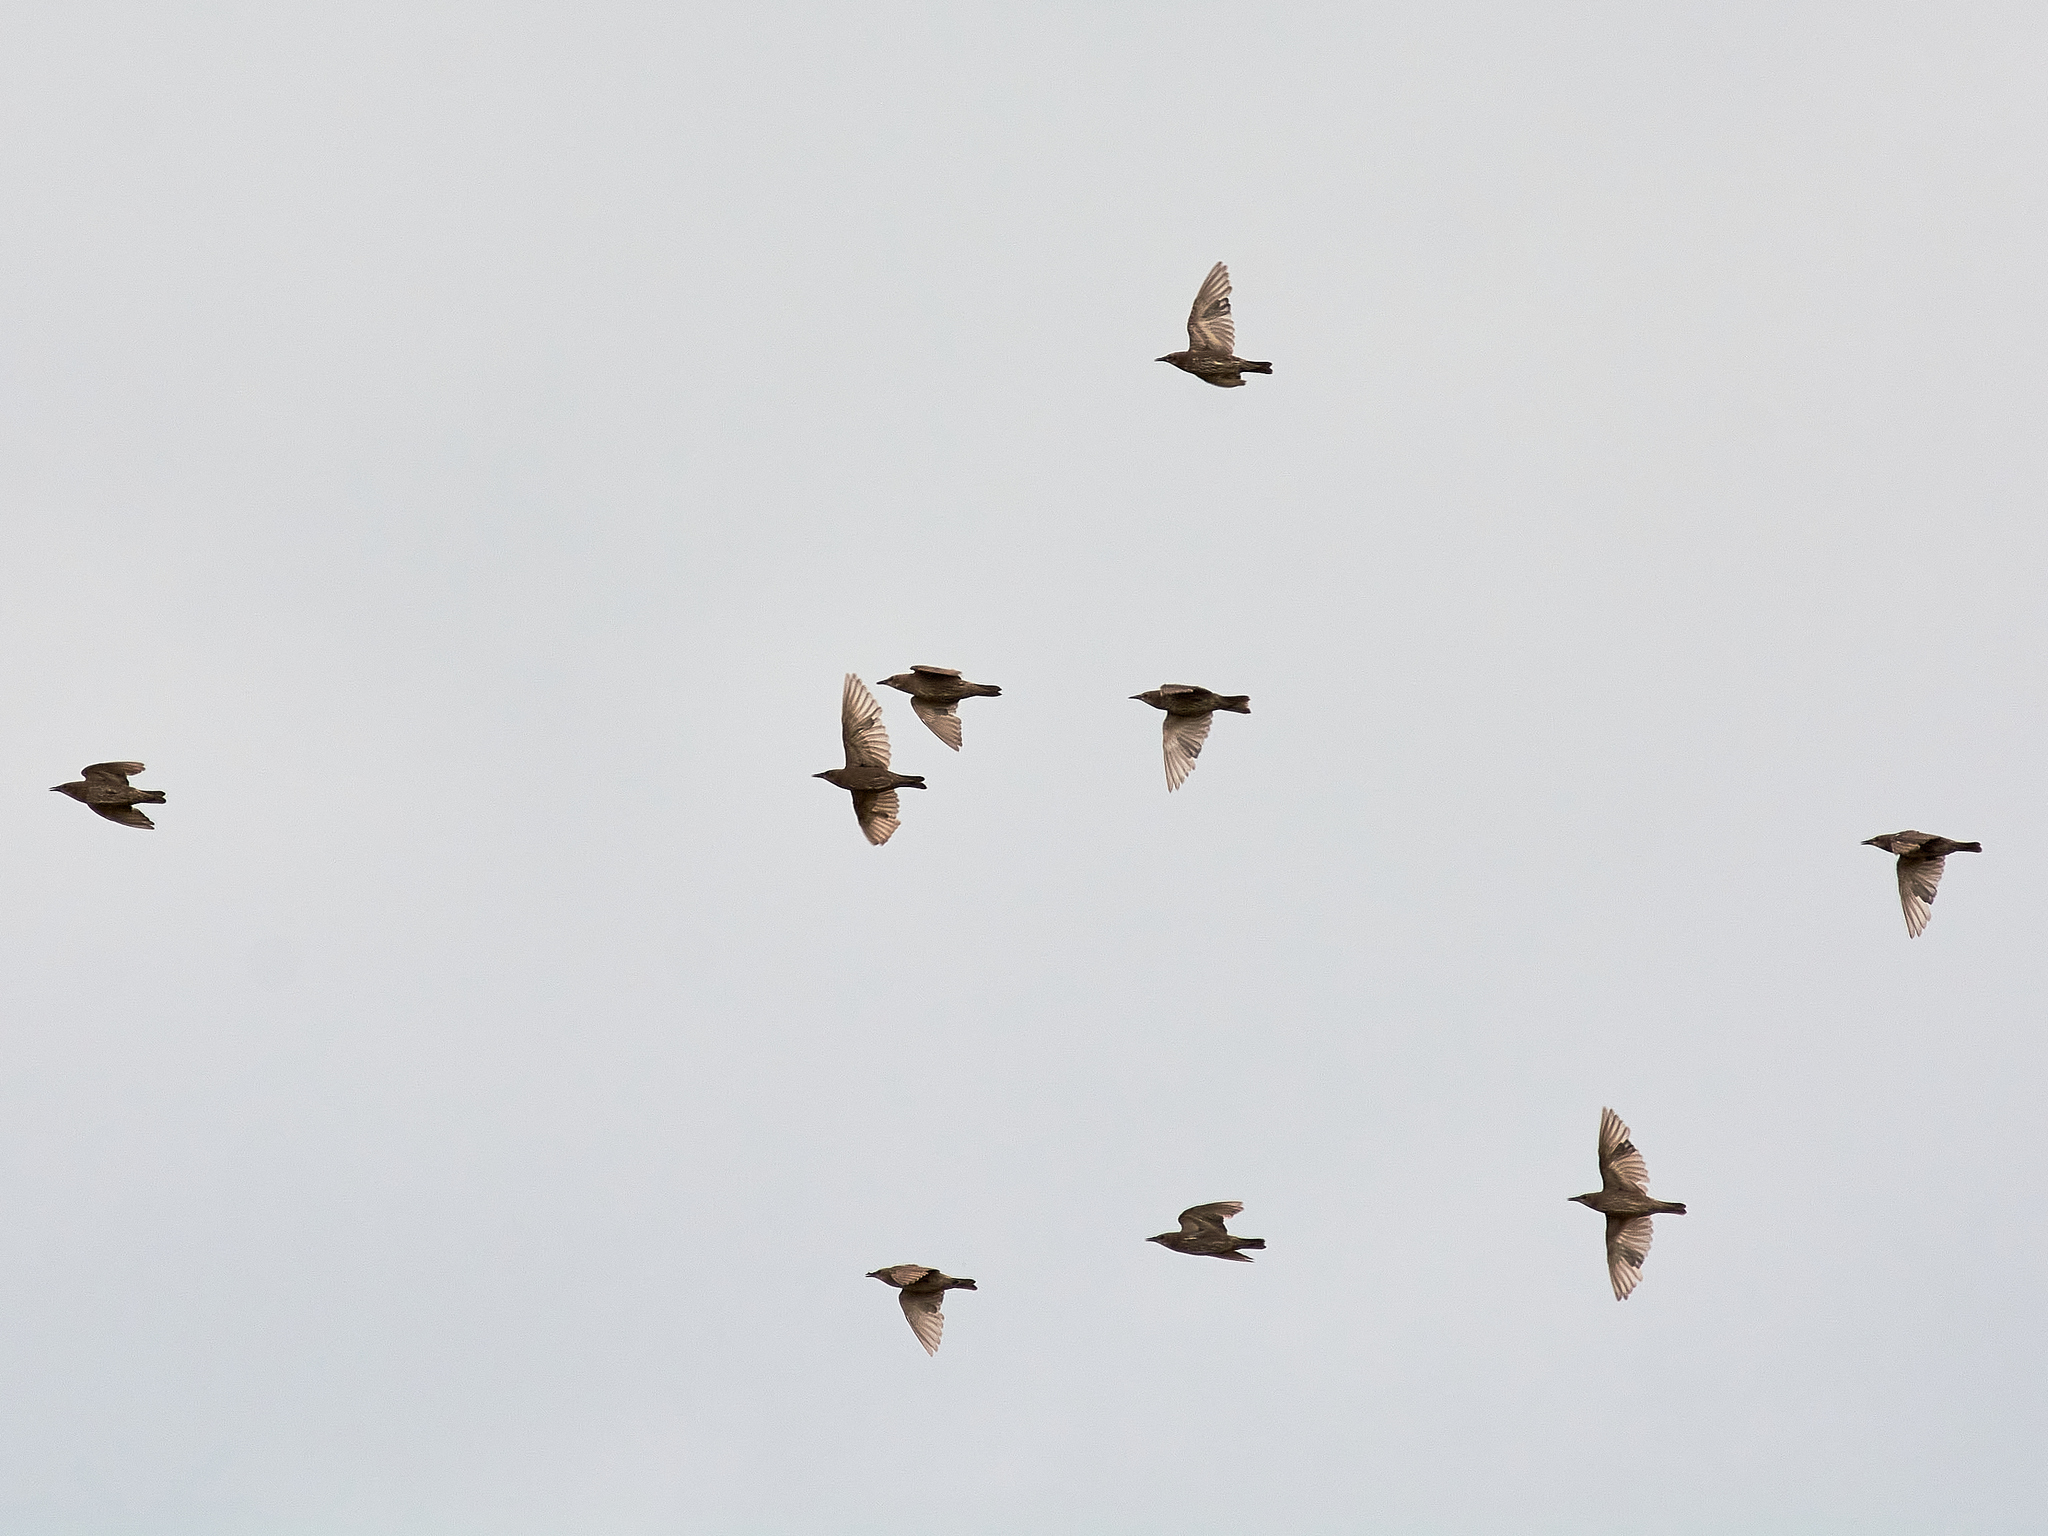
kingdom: Animalia
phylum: Chordata
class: Aves
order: Passeriformes
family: Sturnidae
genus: Sturnus
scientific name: Sturnus vulgaris
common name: Common starling
